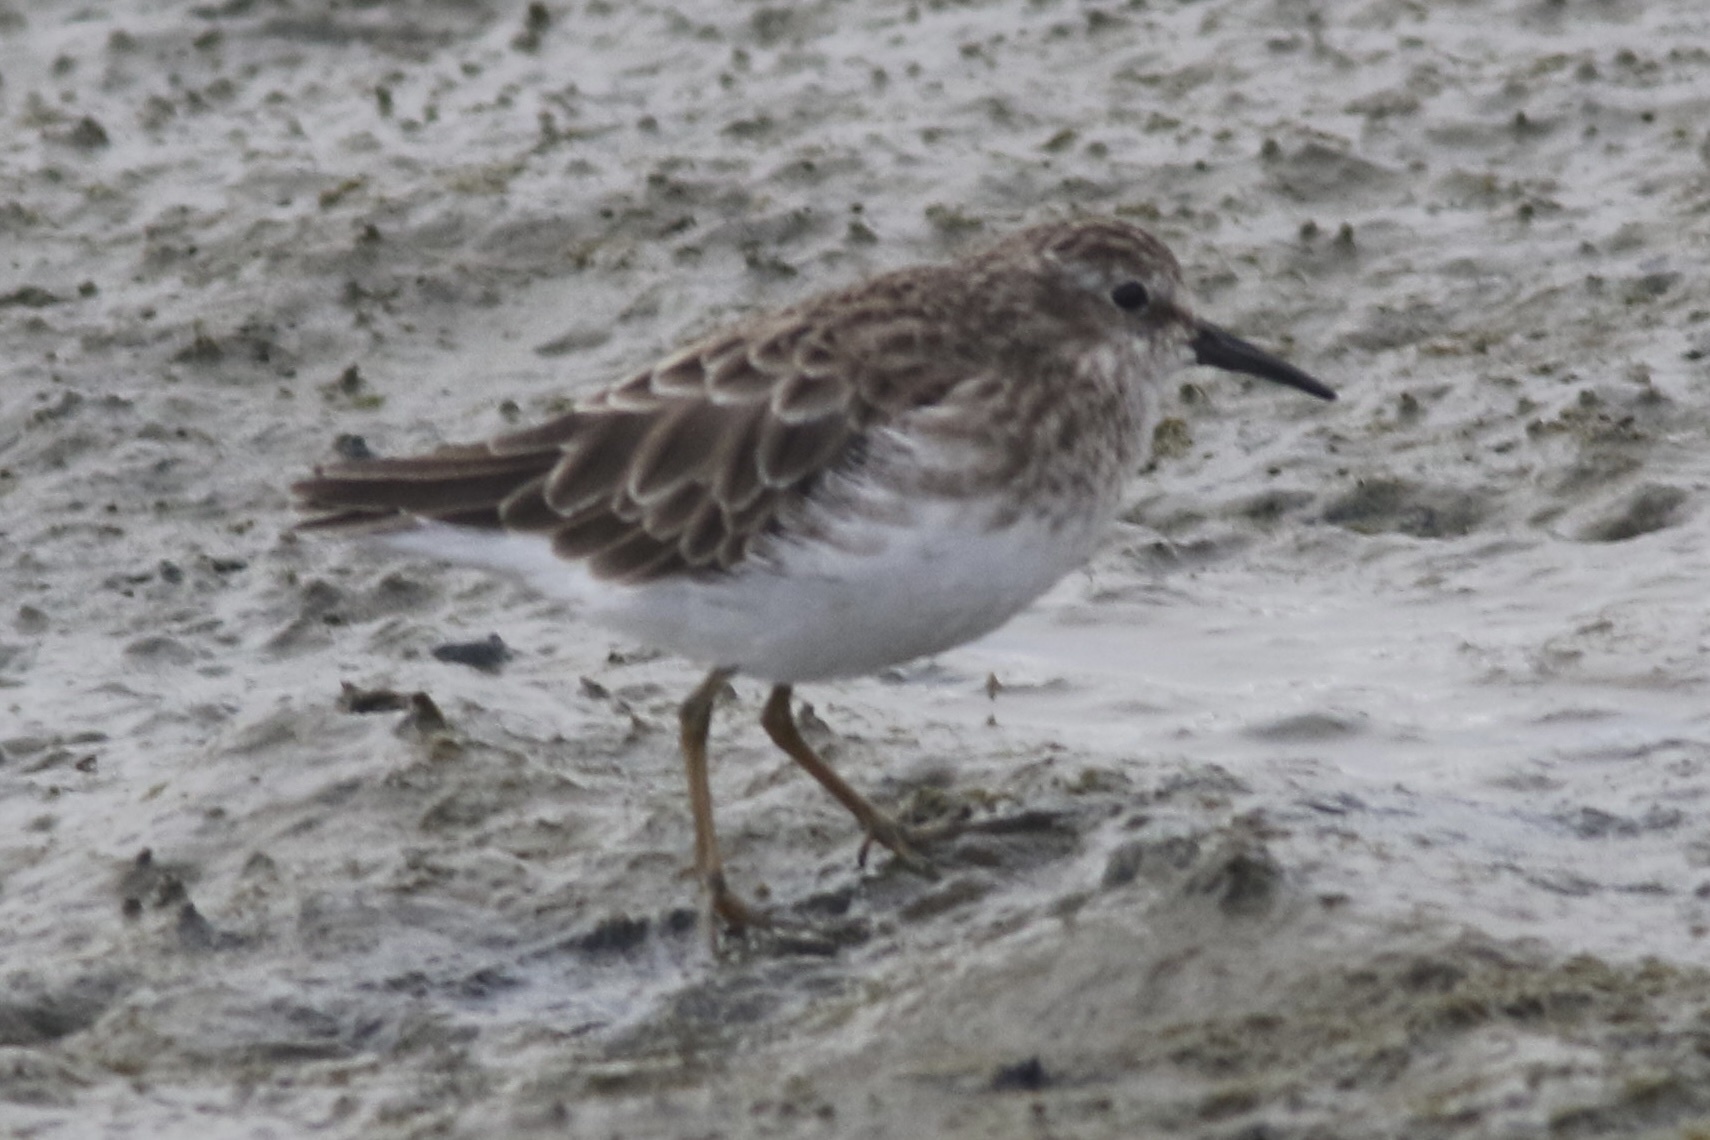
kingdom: Animalia
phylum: Chordata
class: Aves
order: Charadriiformes
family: Scolopacidae
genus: Calidris
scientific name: Calidris minutilla
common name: Least sandpiper
